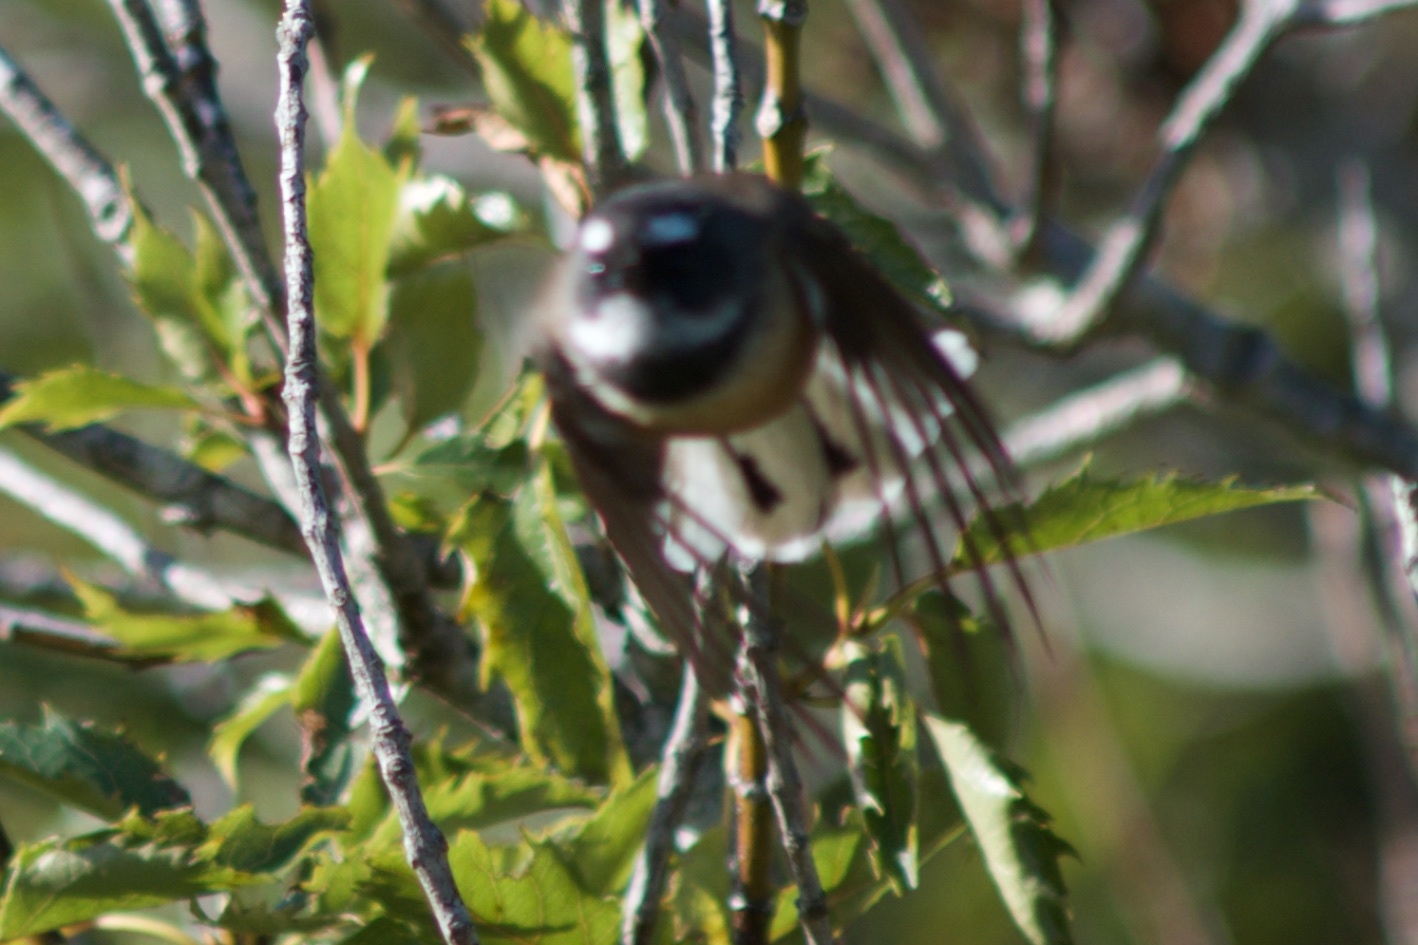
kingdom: Animalia
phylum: Chordata
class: Aves
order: Passeriformes
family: Rhipiduridae
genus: Rhipidura
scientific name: Rhipidura fuliginosa
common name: New zealand fantail
